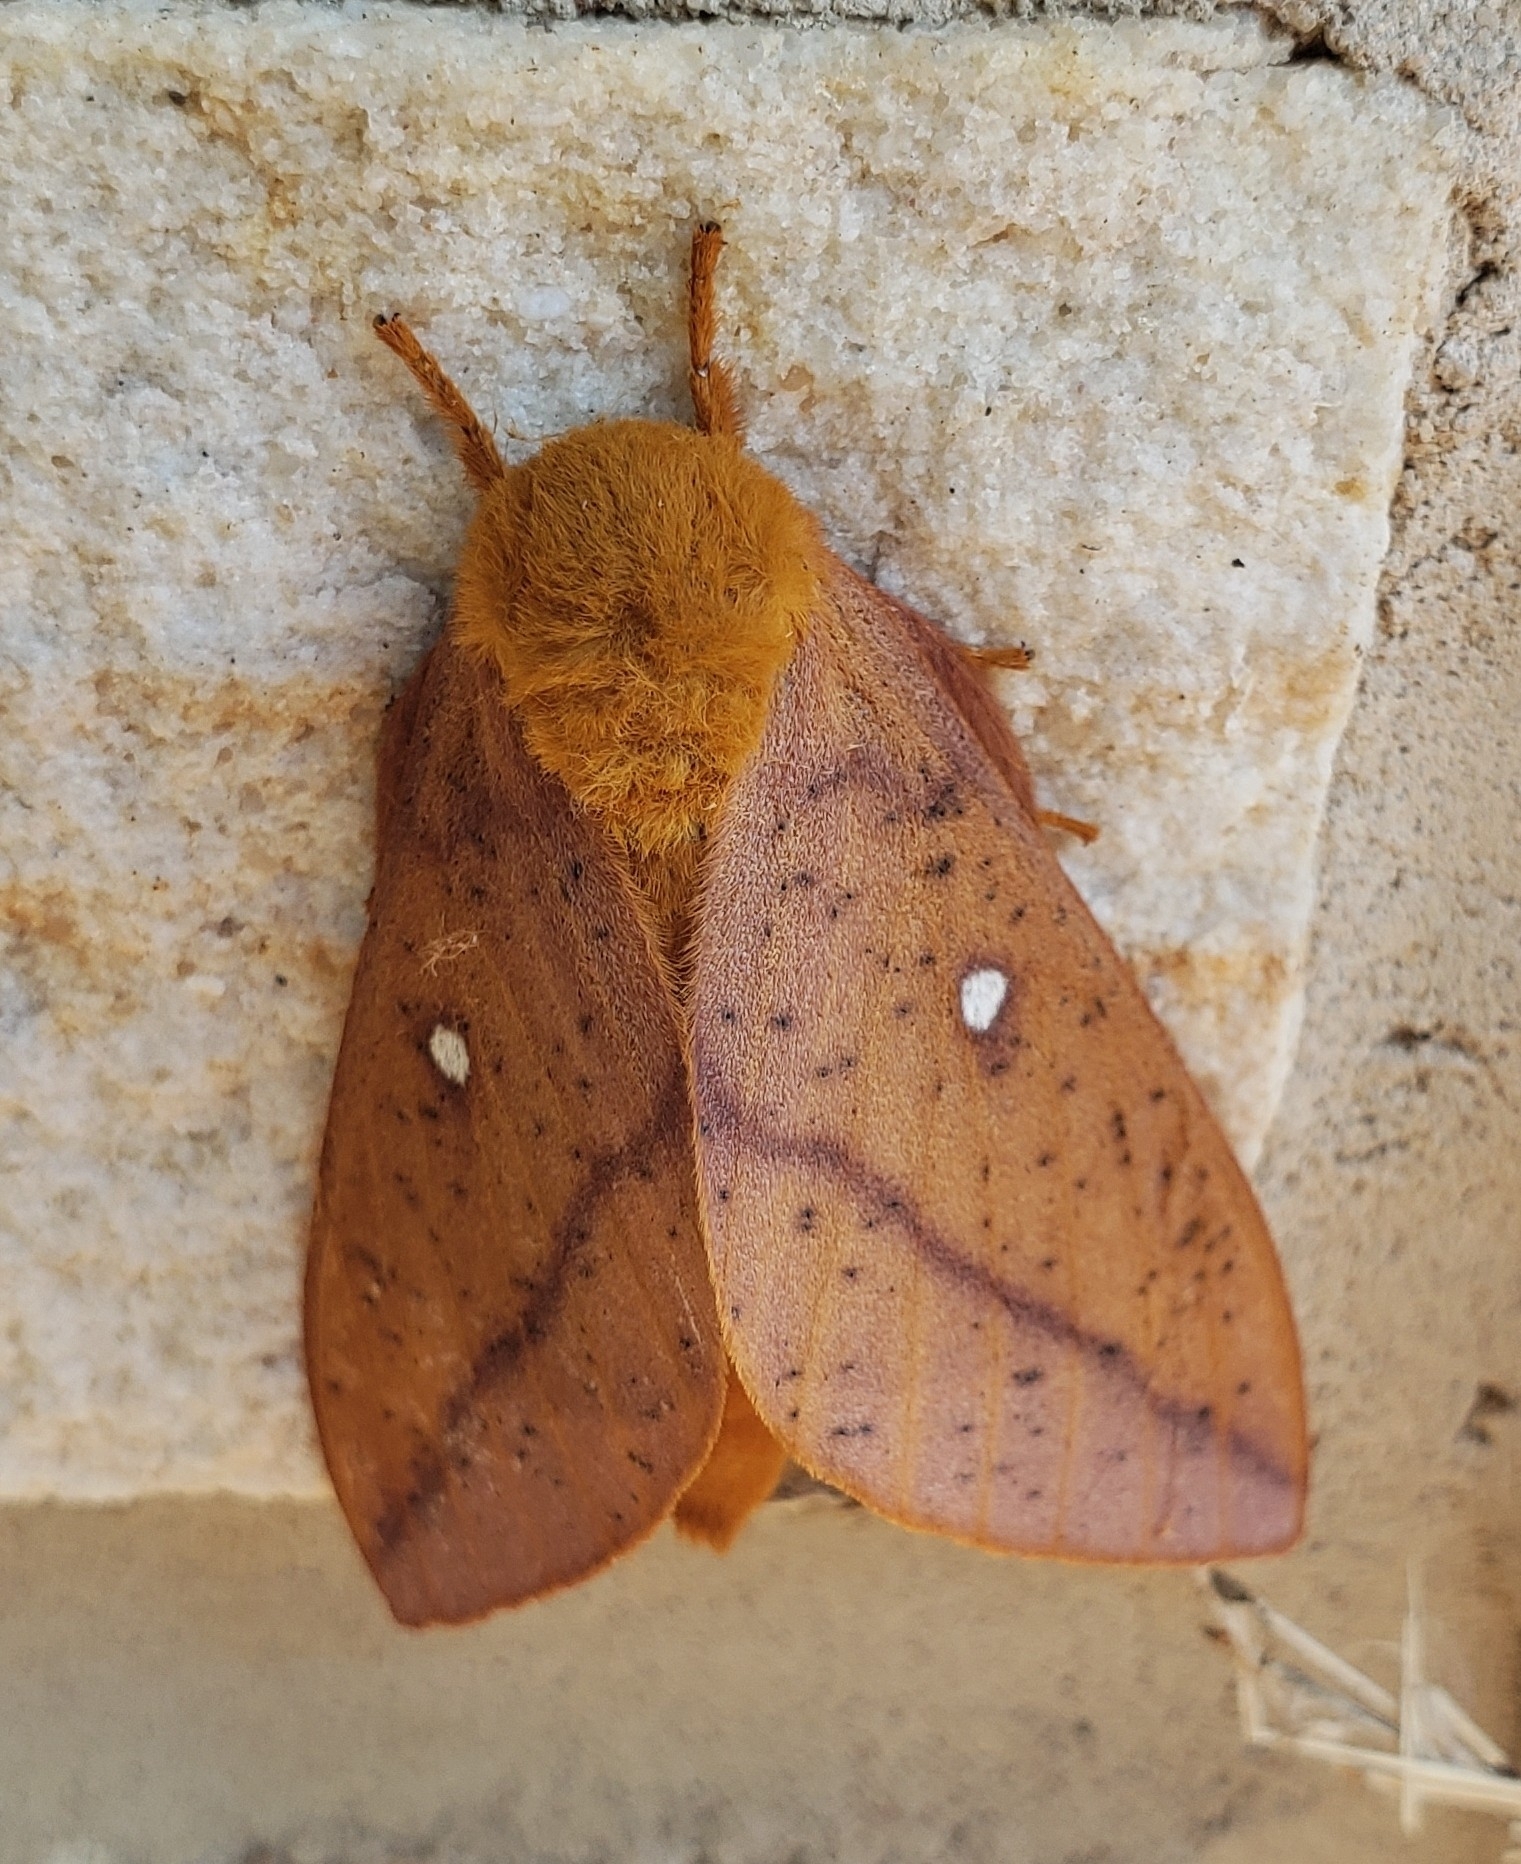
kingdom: Animalia
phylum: Arthropoda
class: Insecta
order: Lepidoptera
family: Saturniidae
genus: Anisota
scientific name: Anisota senatoria
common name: Orange-striped oakworm moth
